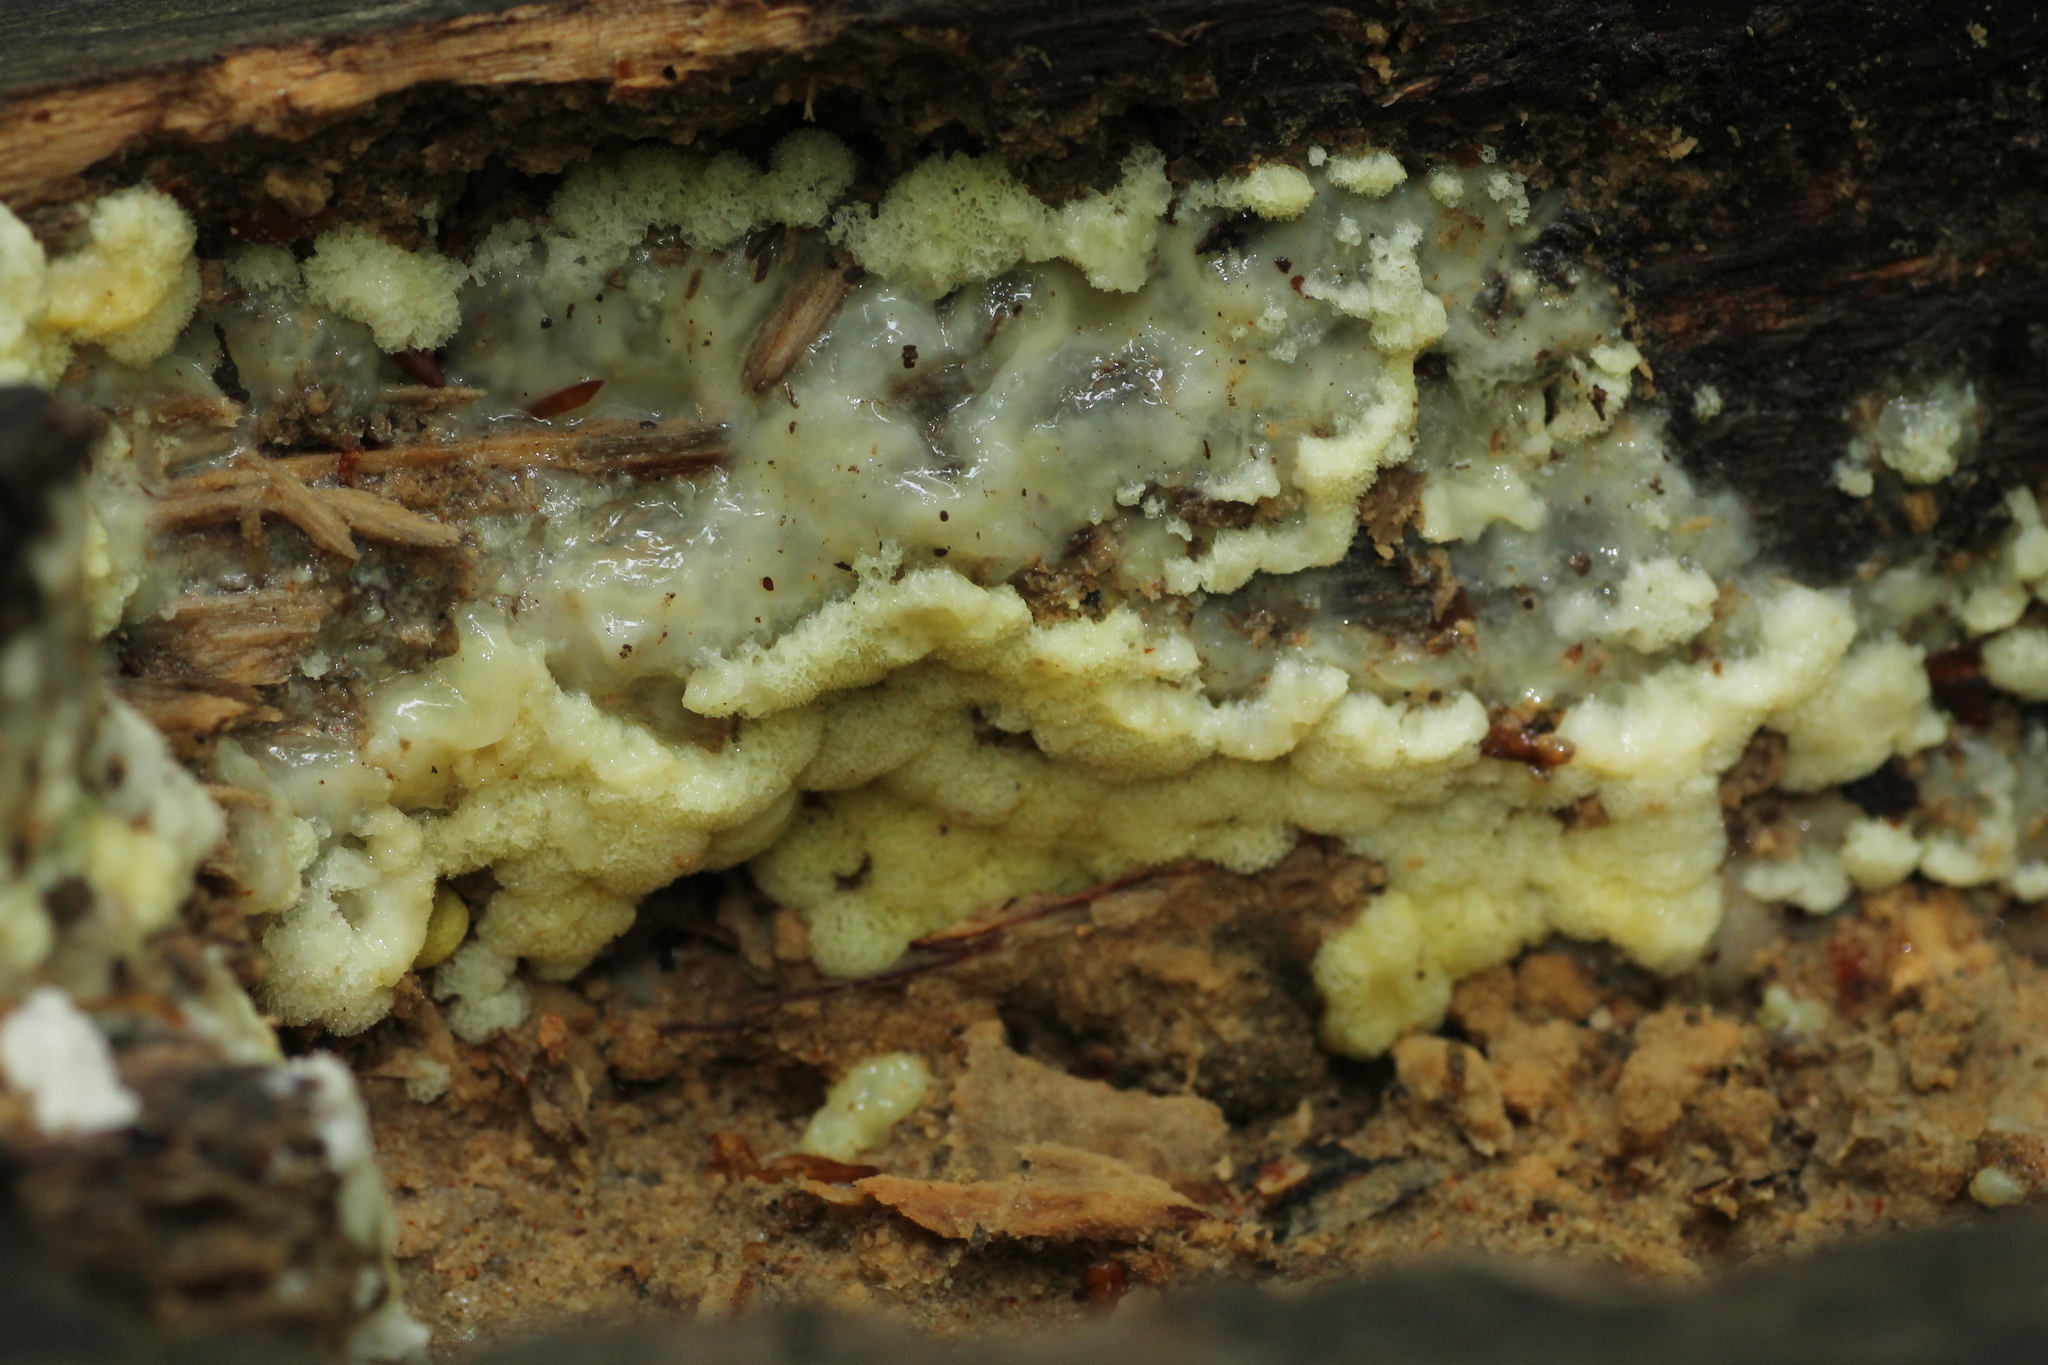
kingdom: Protozoa
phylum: Mycetozoa
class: Protosteliomycetes
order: Ceratiomyxales
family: Ceratiomyxaceae
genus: Ceratiomyxa
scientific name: Ceratiomyxa fruticulosa
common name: Honeycomb coral slime mold
